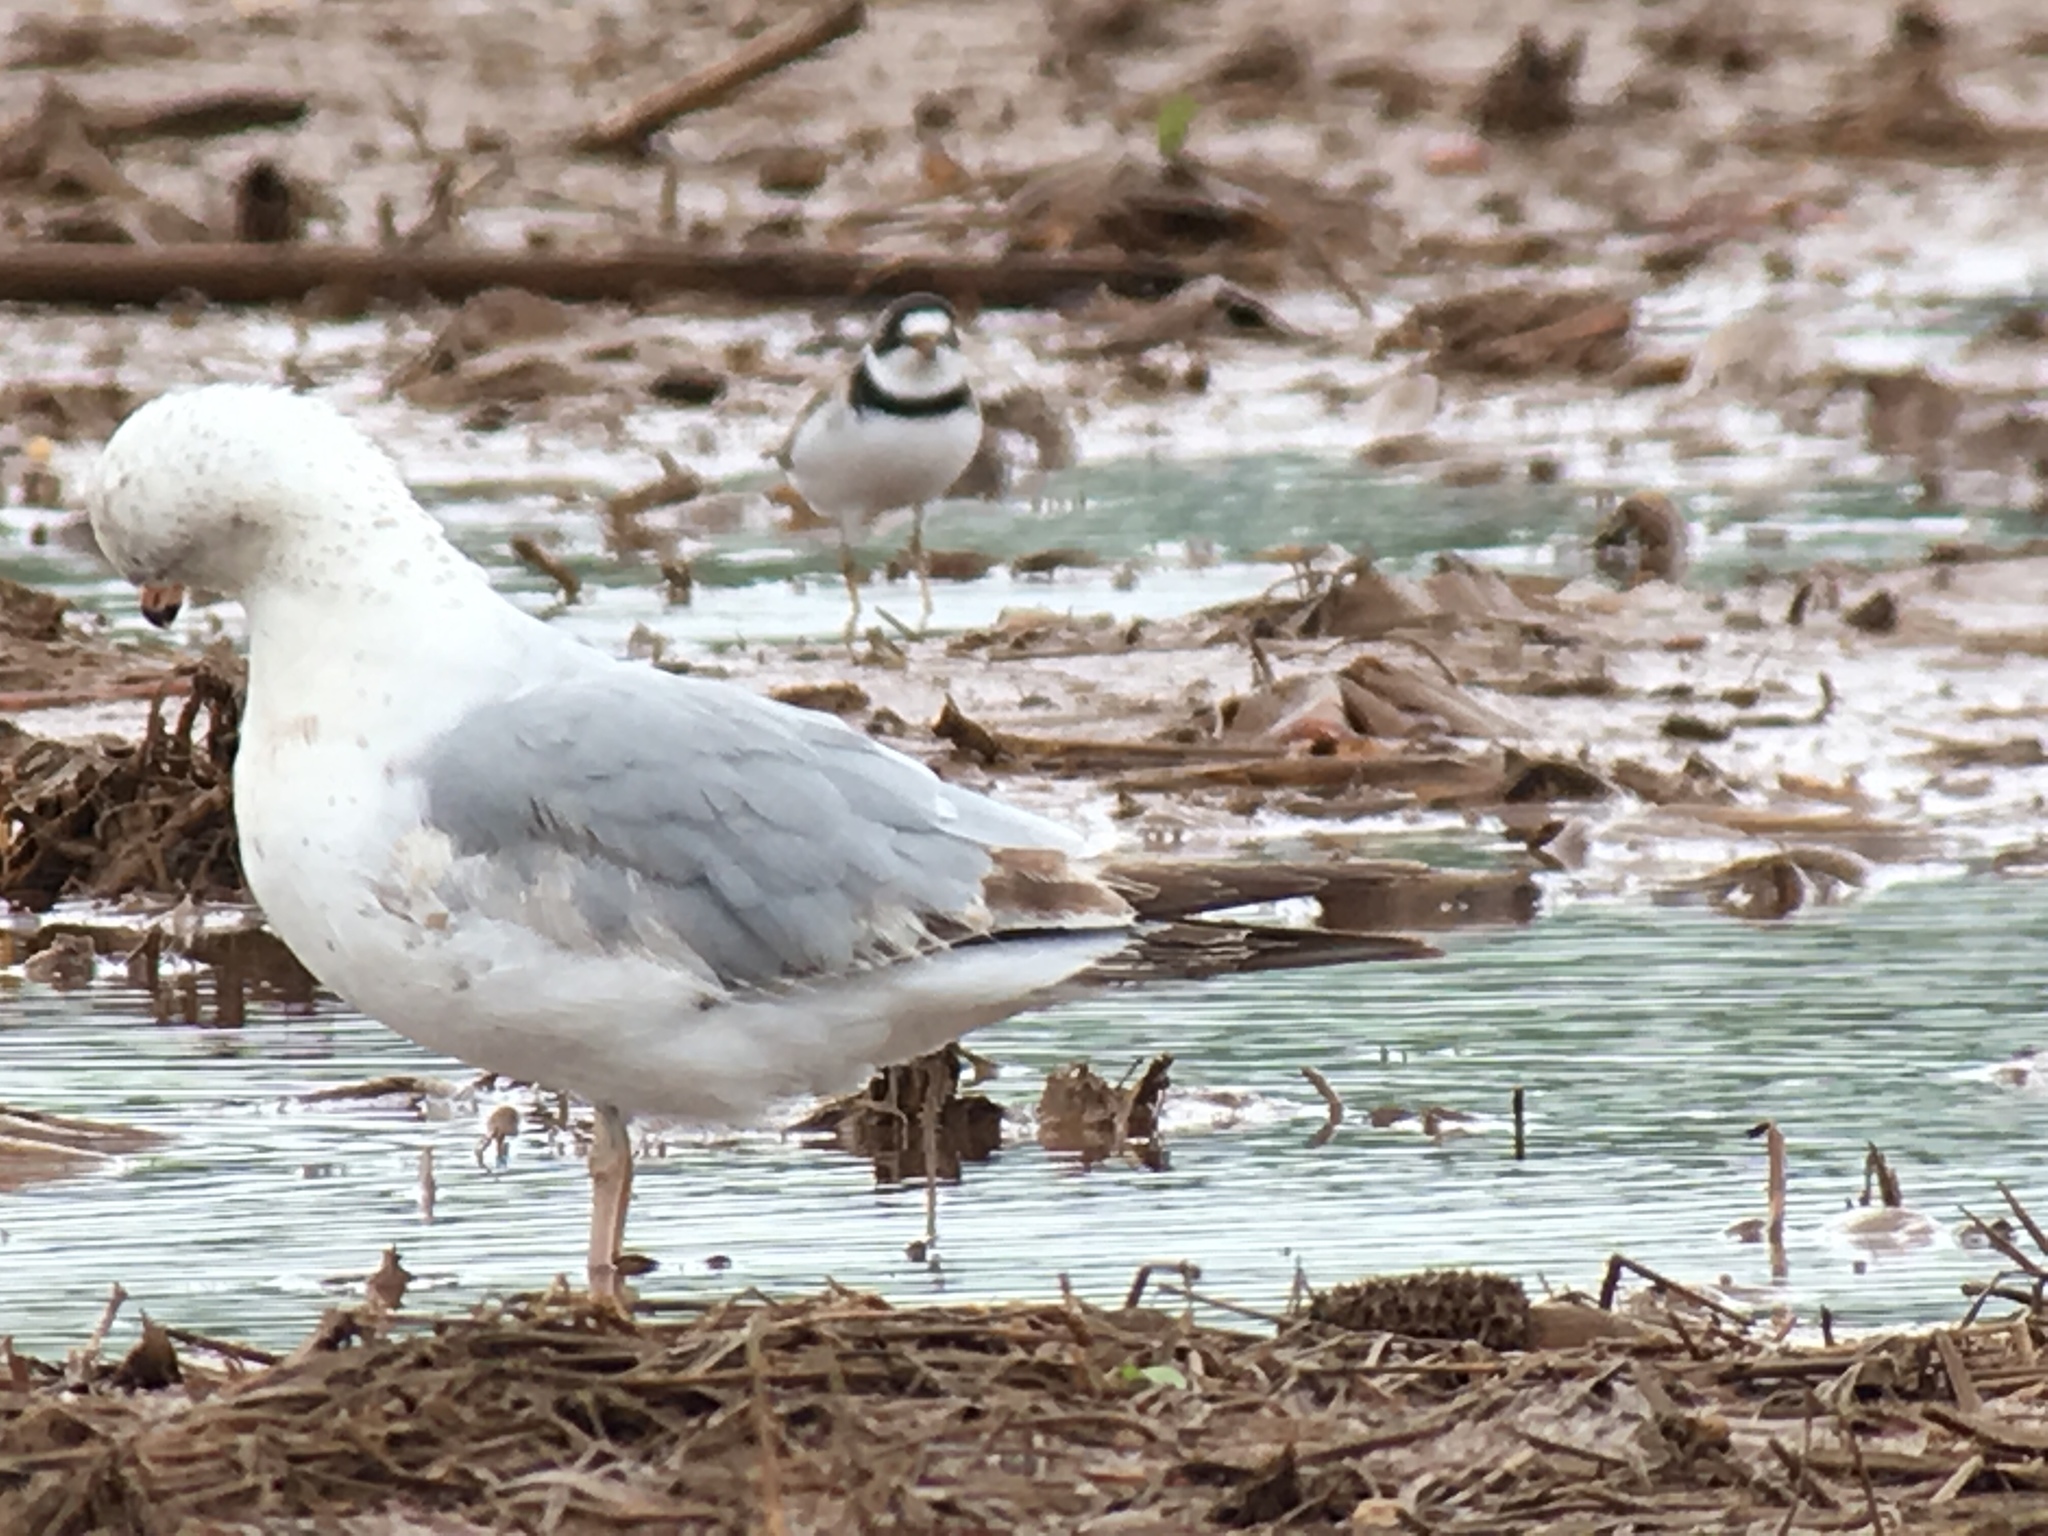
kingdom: Animalia
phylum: Chordata
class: Aves
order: Charadriiformes
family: Laridae
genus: Larus
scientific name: Larus delawarensis
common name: Ring-billed gull
